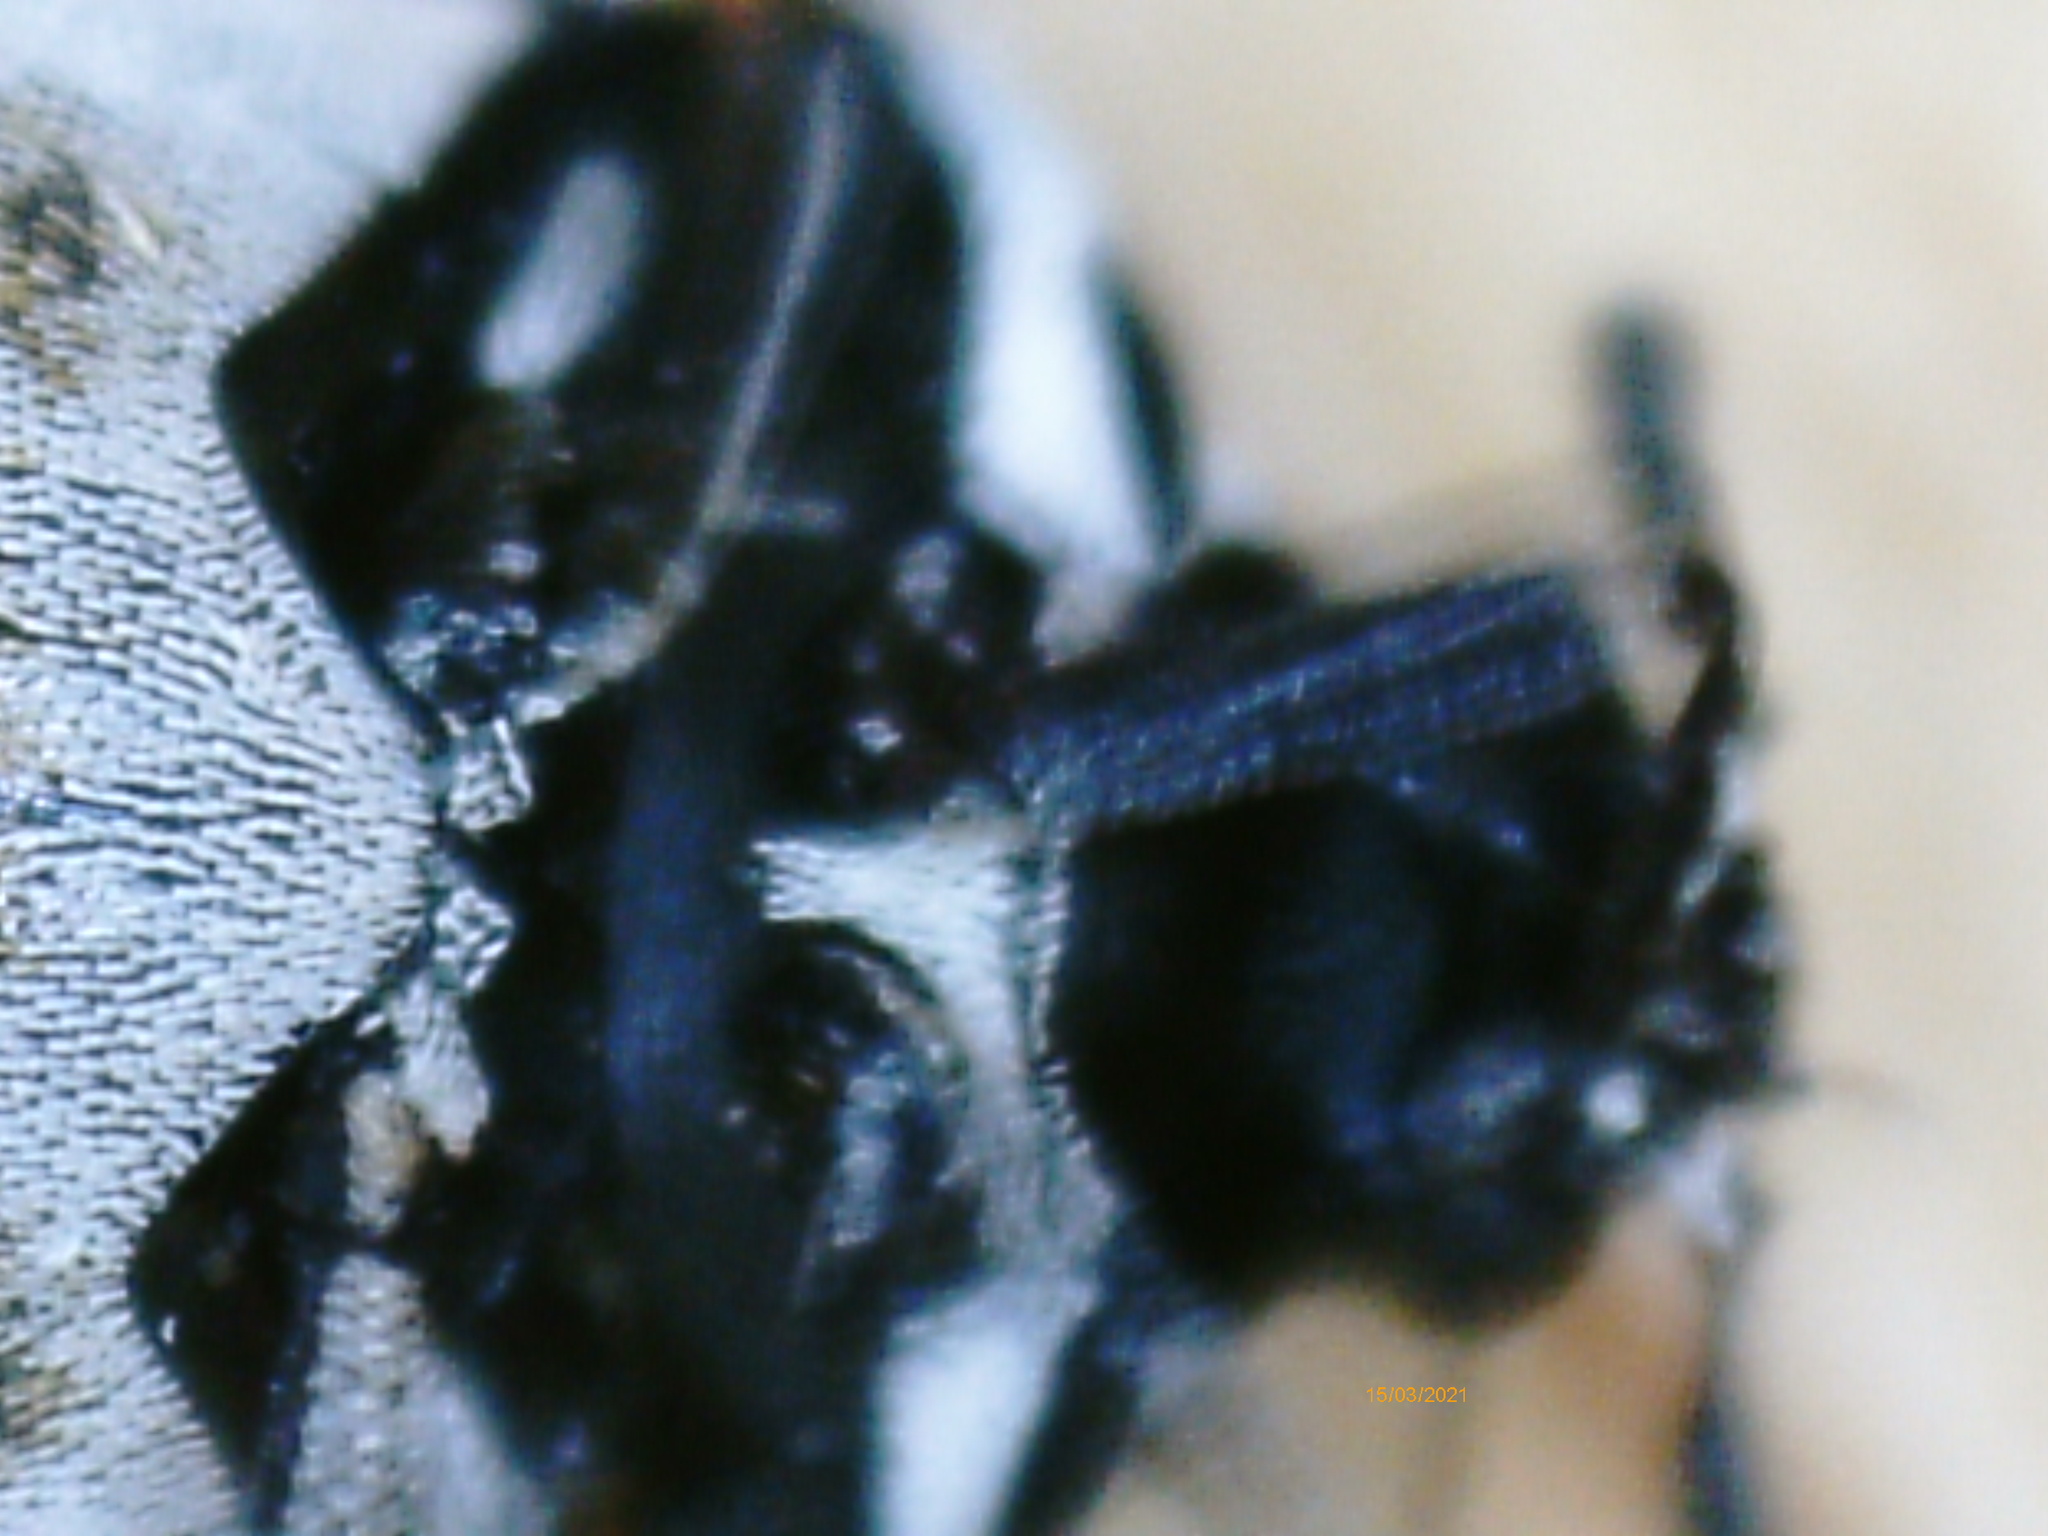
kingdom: Animalia
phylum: Arthropoda
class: Insecta
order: Coleoptera
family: Dermestidae
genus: Anthrenus
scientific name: Anthrenus verbasci
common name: Varied carpet beetle
